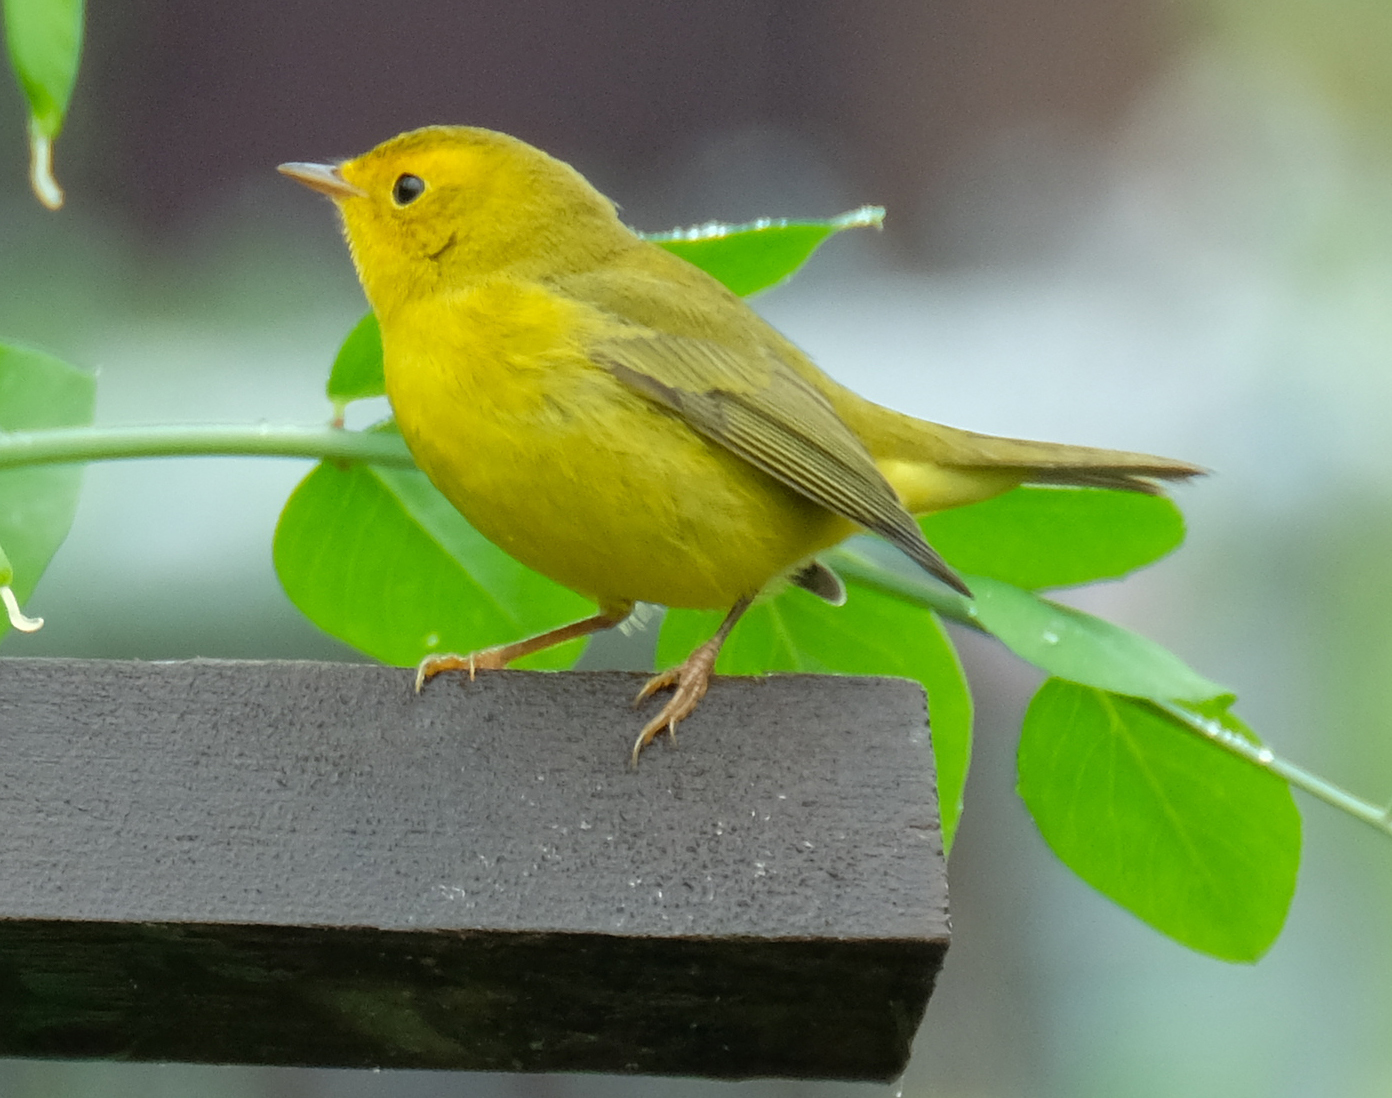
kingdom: Animalia
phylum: Chordata
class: Aves
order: Passeriformes
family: Parulidae
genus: Cardellina
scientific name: Cardellina pusilla
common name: Wilson's warbler
